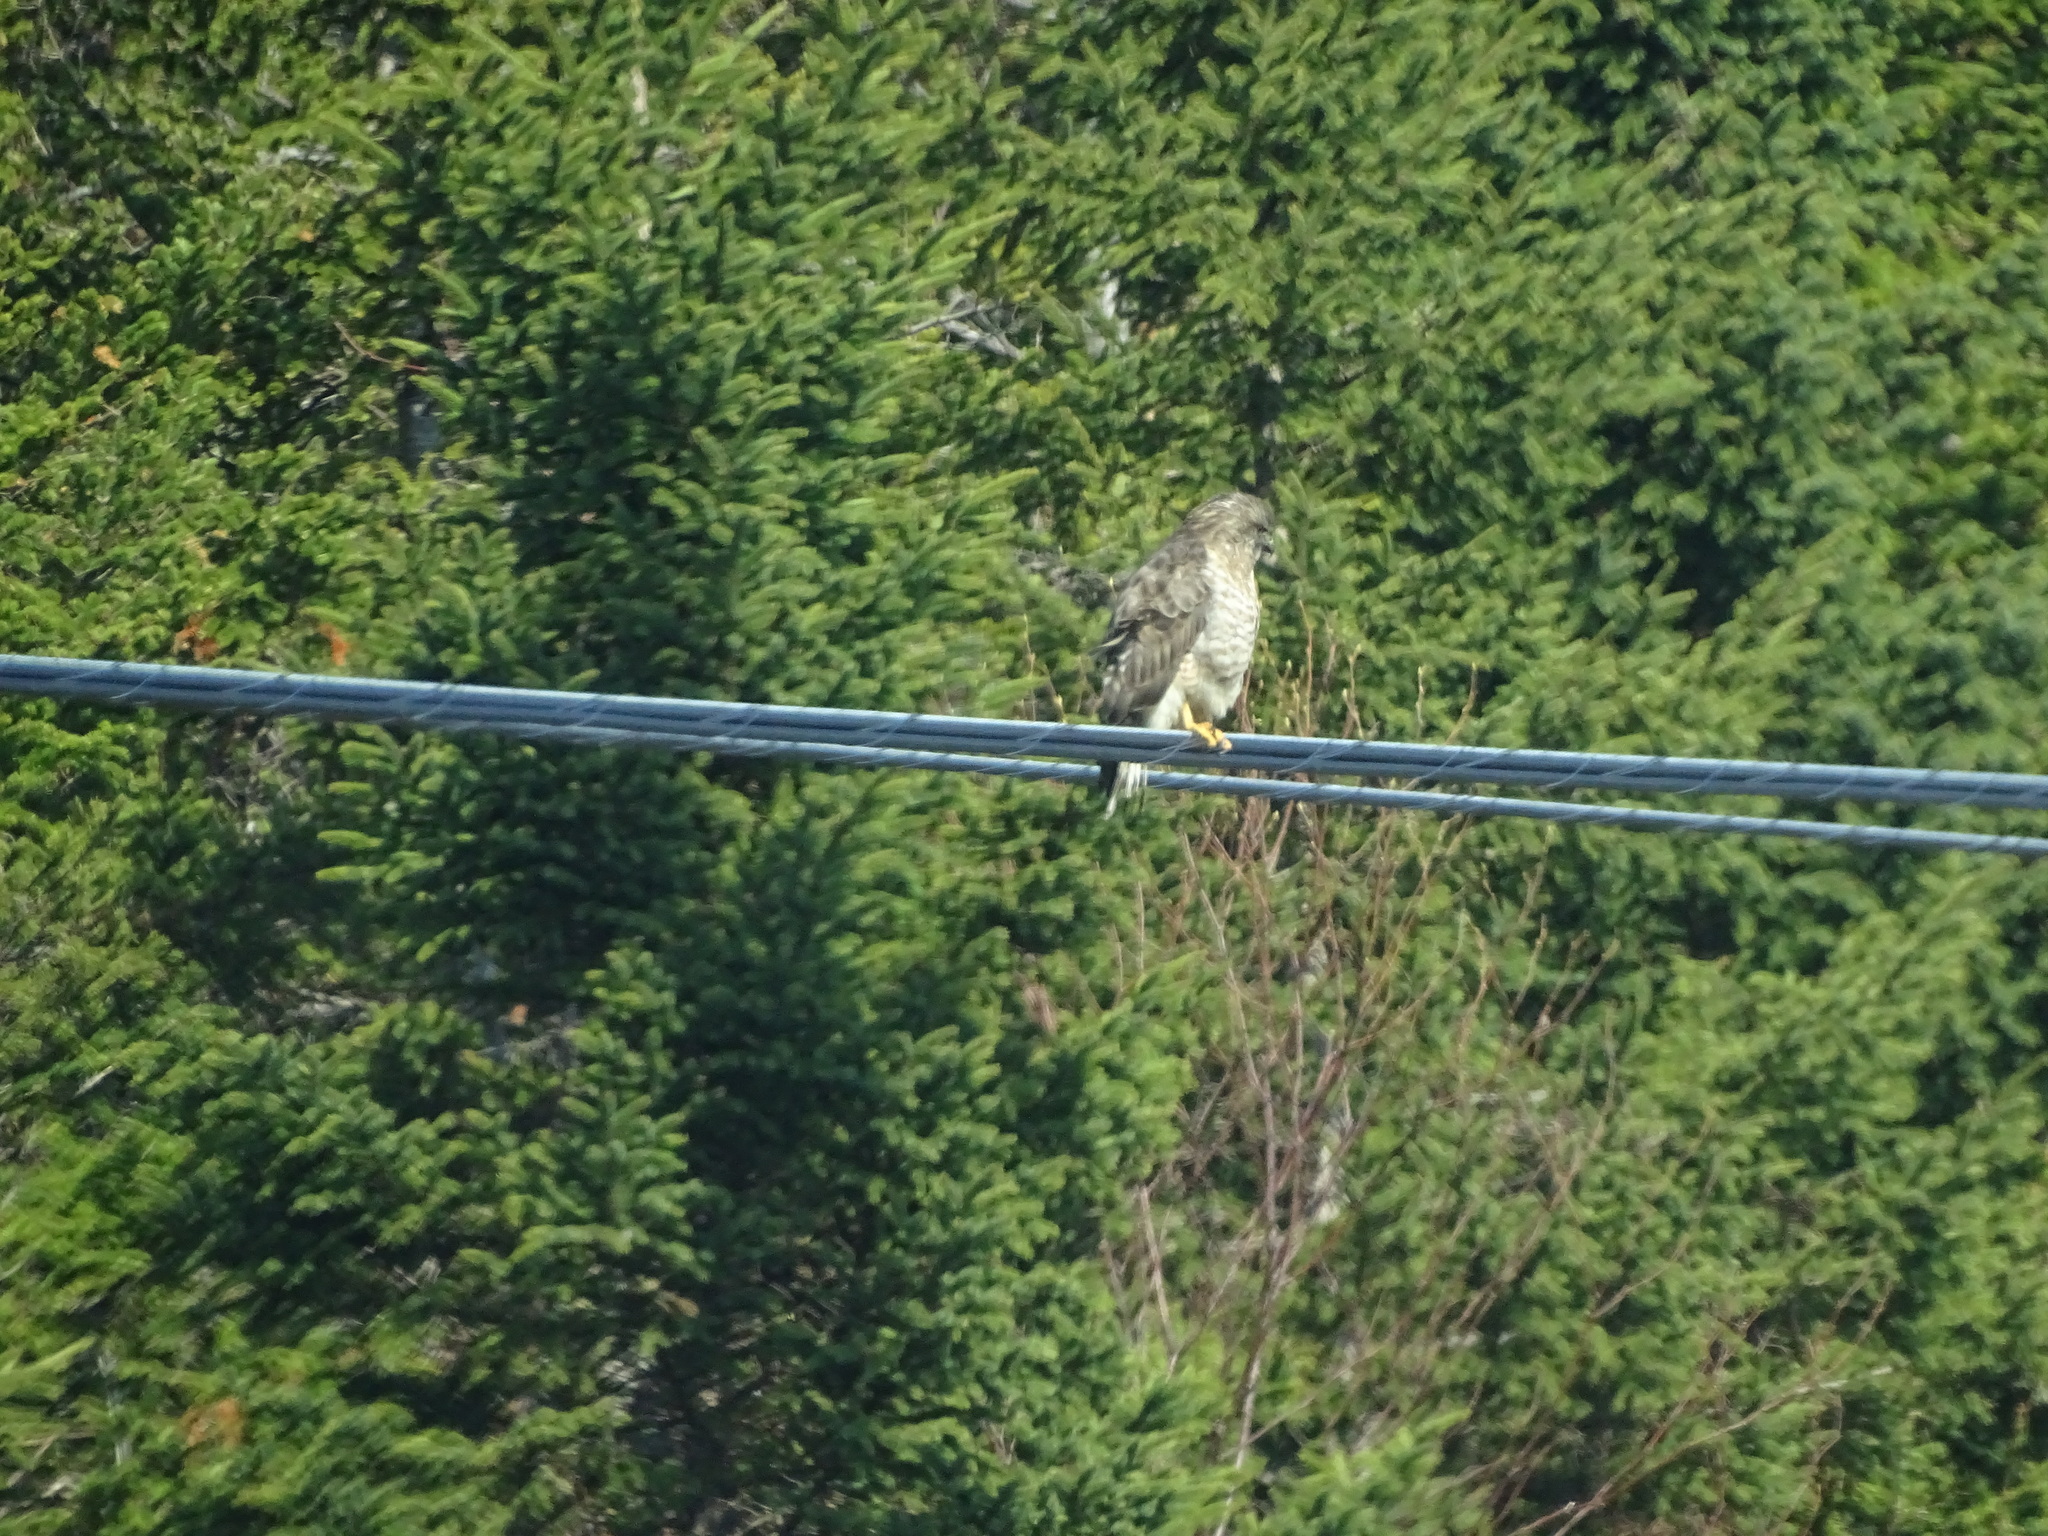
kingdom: Animalia
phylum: Chordata
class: Aves
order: Accipitriformes
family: Accipitridae
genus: Buteo
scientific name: Buteo platypterus
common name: Broad-winged hawk
